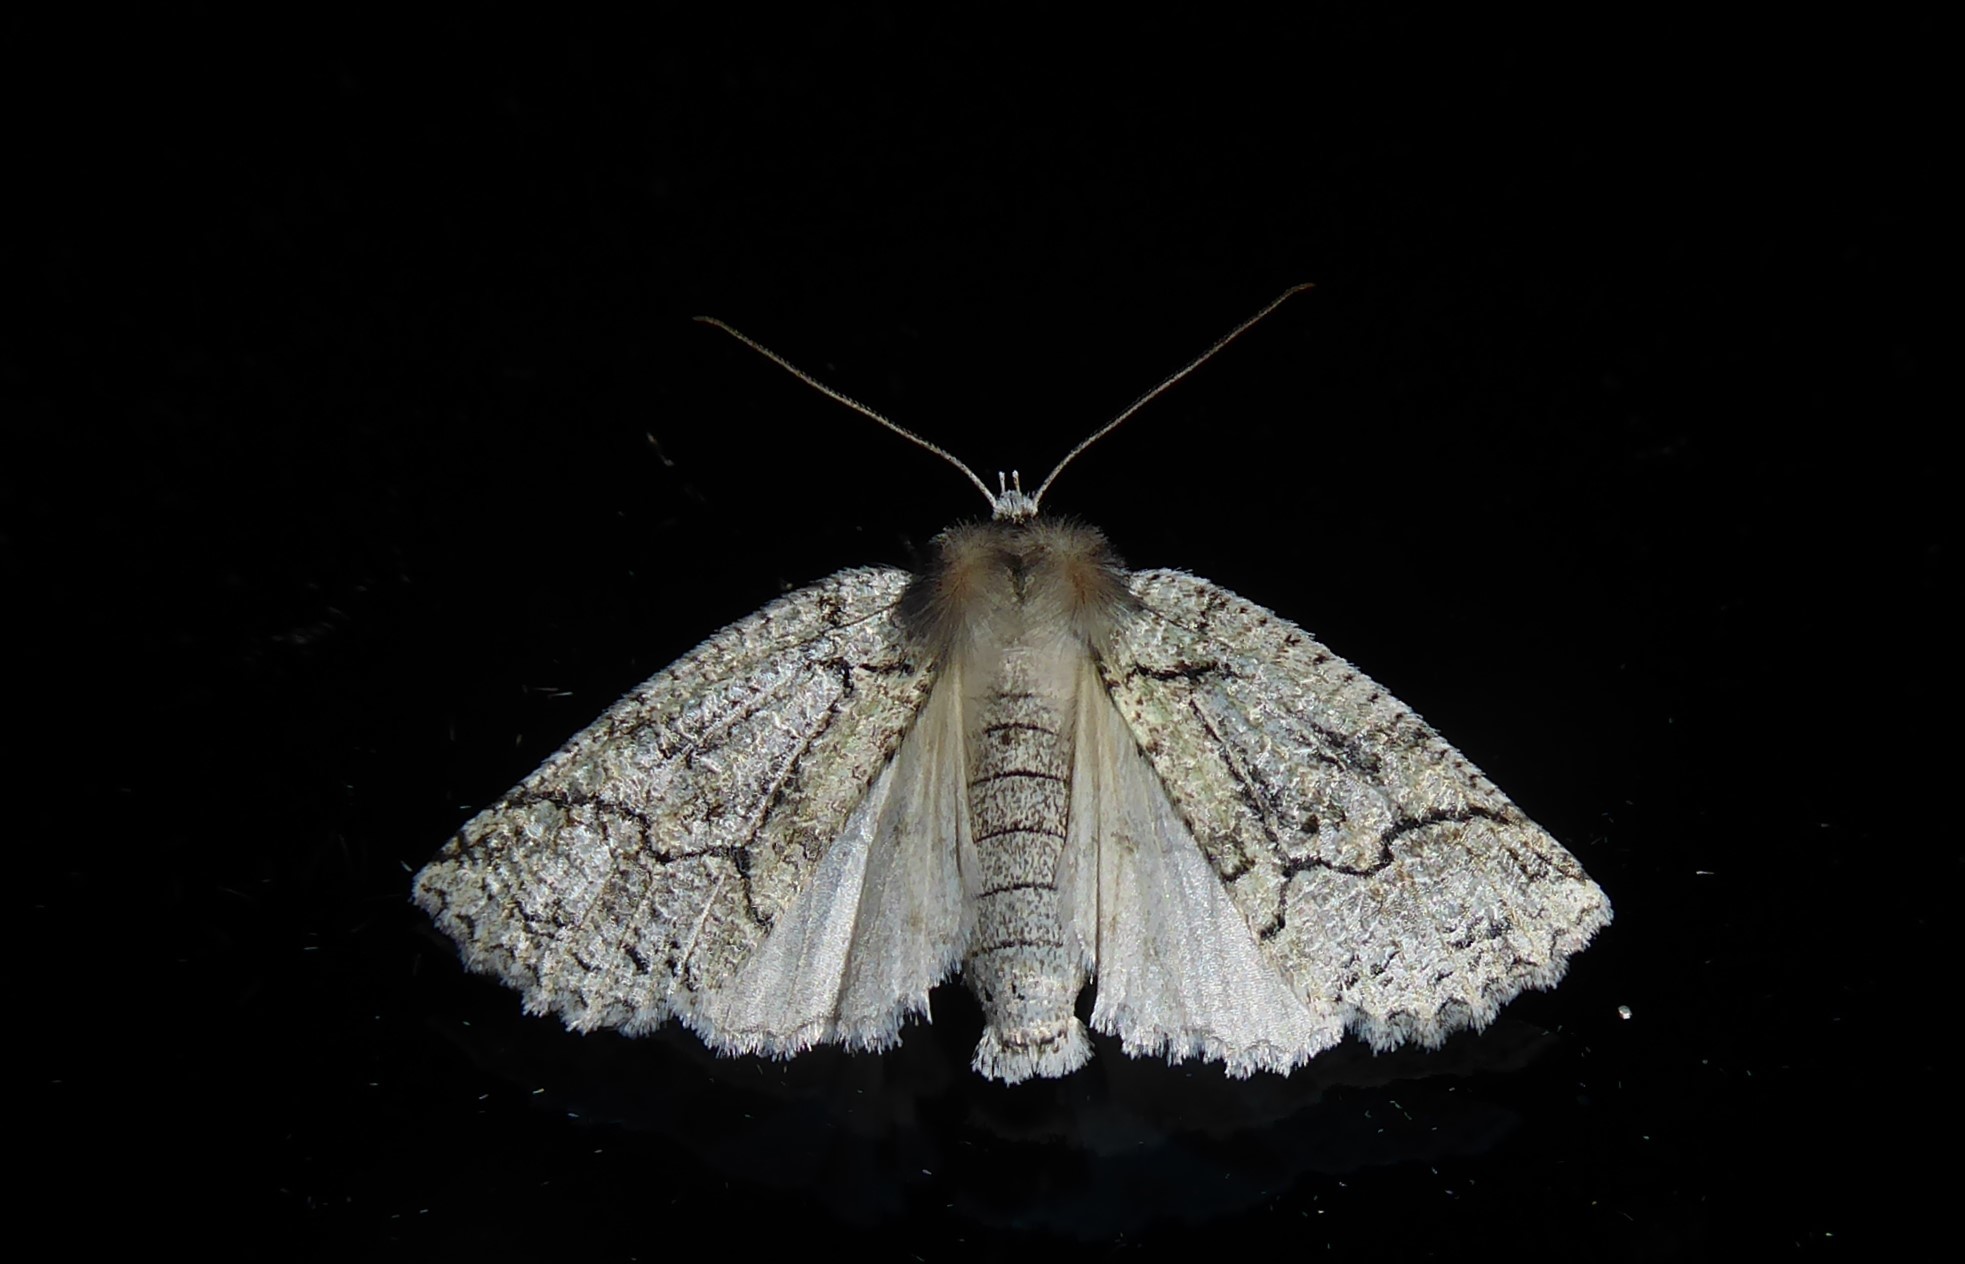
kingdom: Animalia
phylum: Arthropoda
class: Insecta
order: Lepidoptera
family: Geometridae
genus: Declana
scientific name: Declana floccosa
